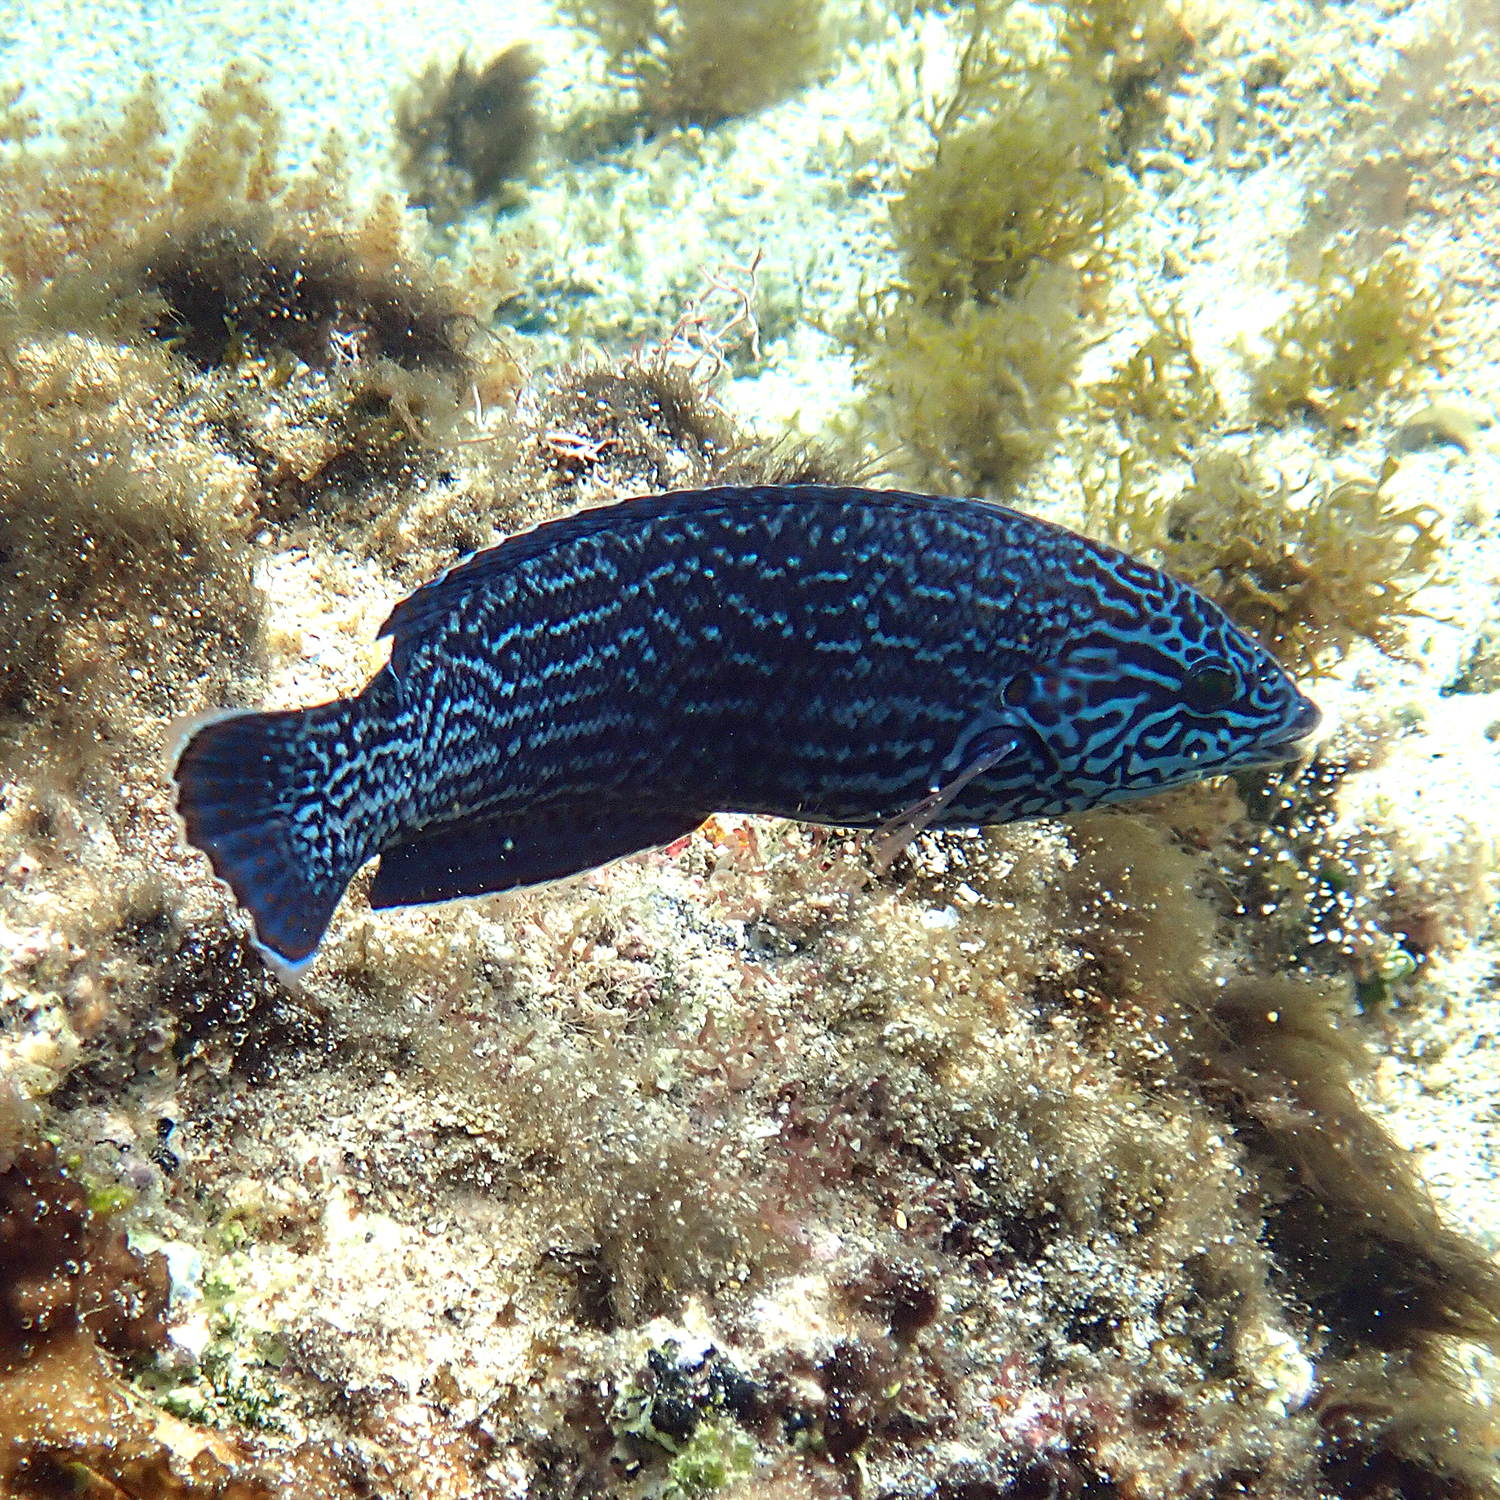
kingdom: Animalia
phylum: Chordata
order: Perciformes
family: Labridae
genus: Coris
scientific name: Coris bulbifrons
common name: Doubleheader
